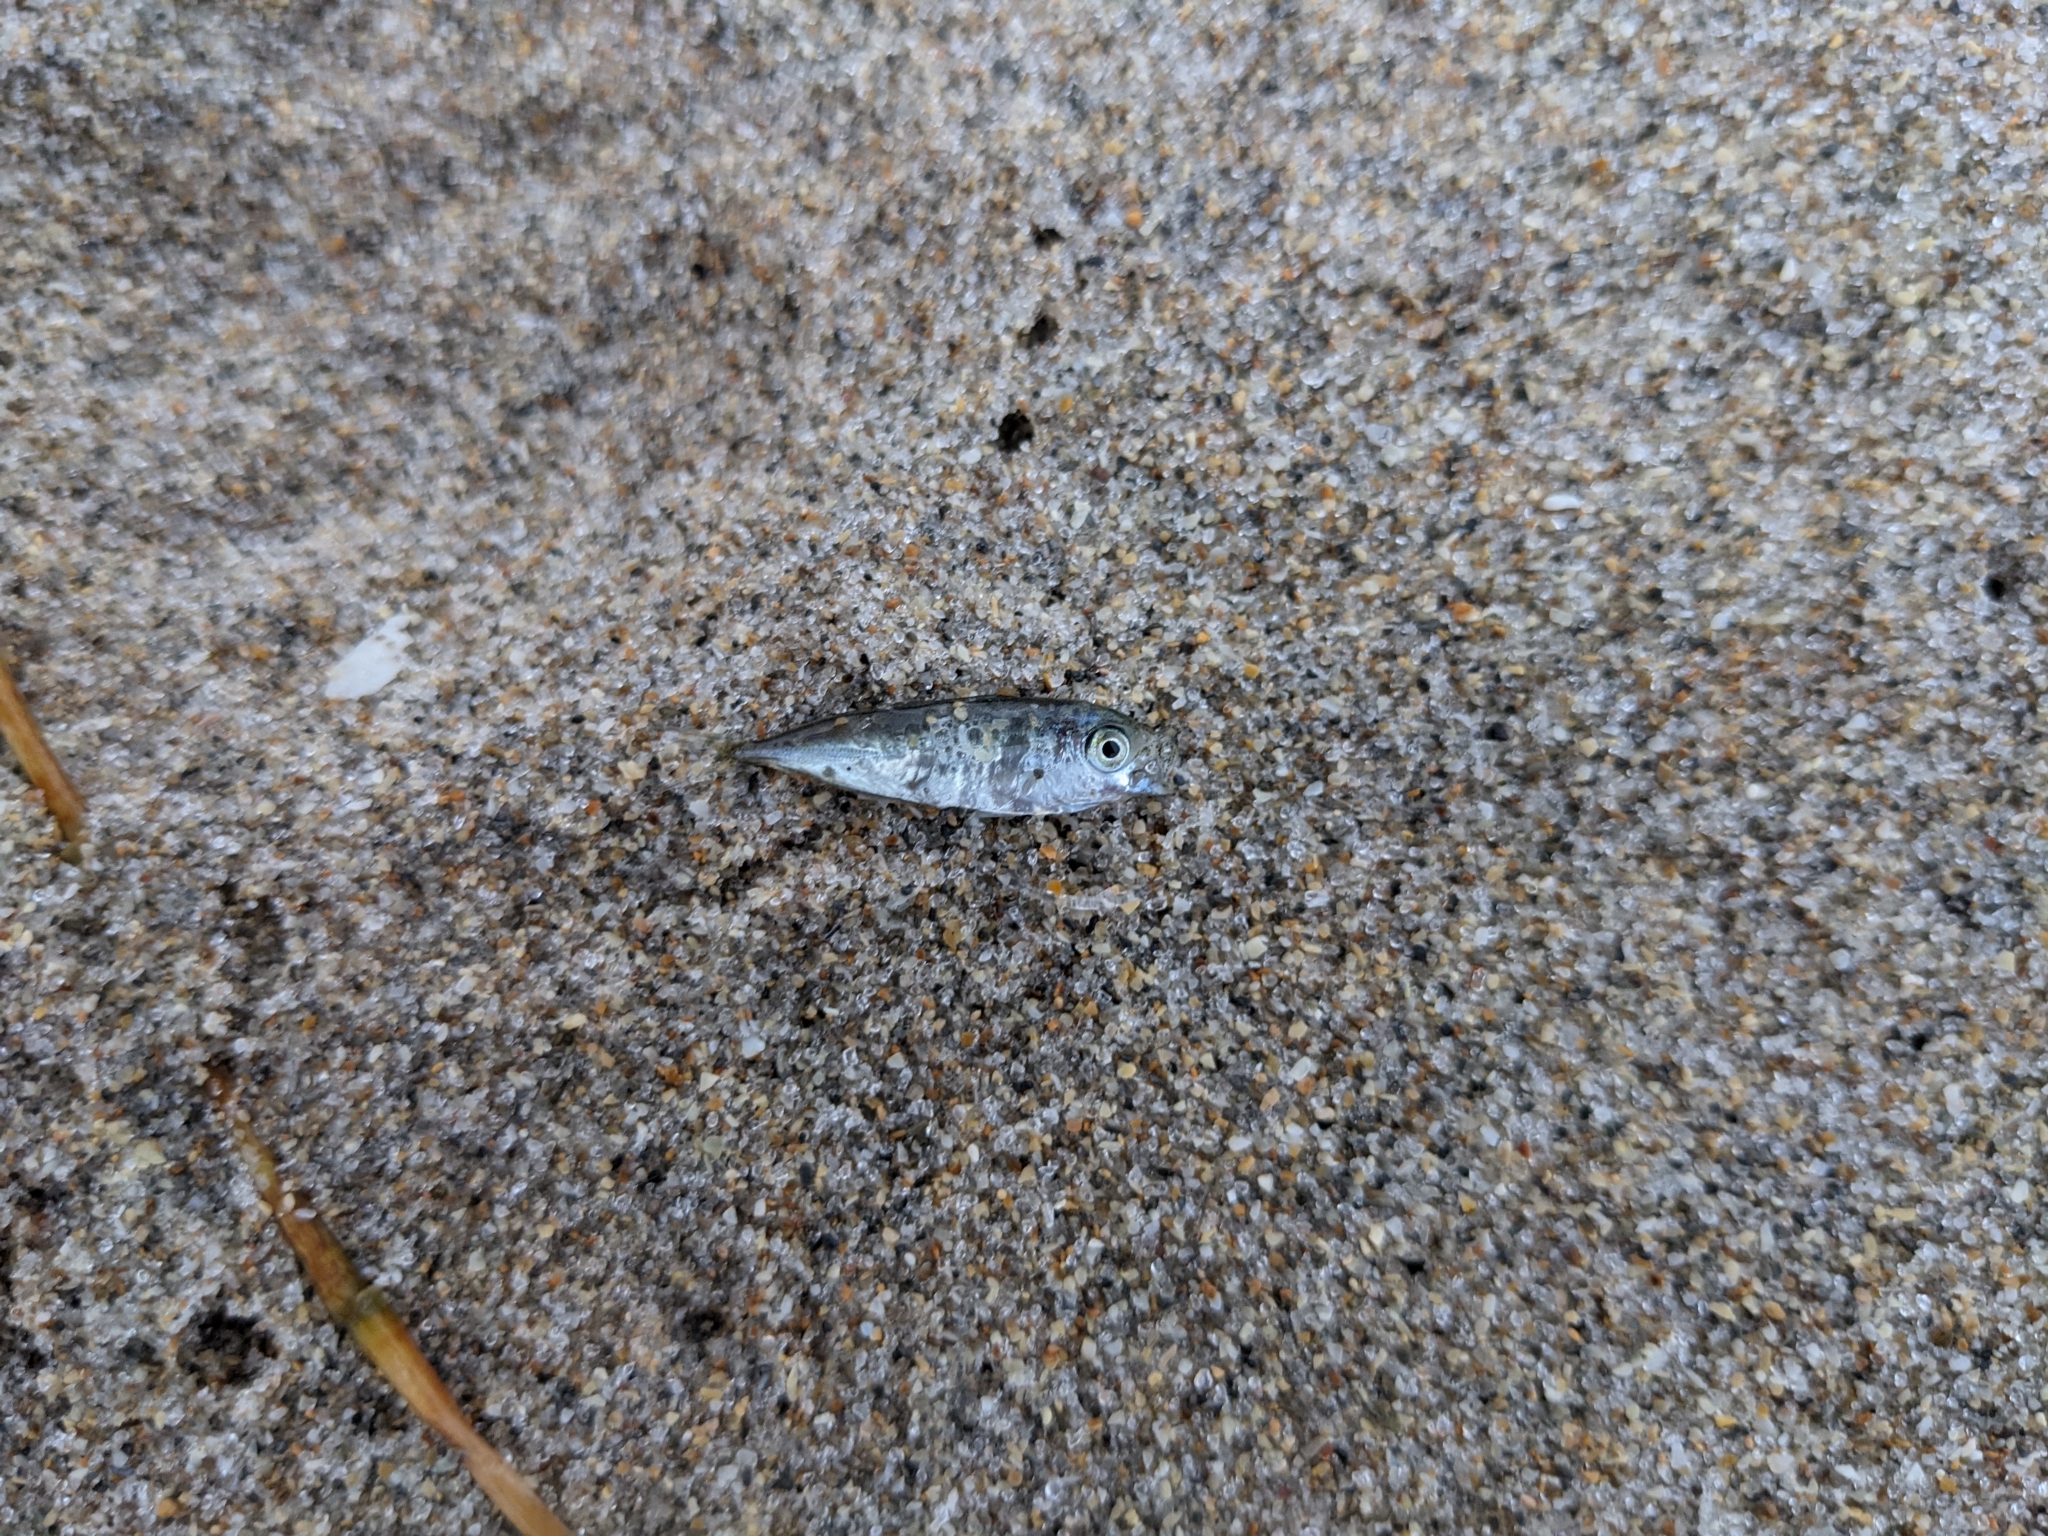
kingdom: Animalia
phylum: Chordata
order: Perciformes
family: Pomatomidae
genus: Pomatomus
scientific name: Pomatomus saltatrix
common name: Bluefish
